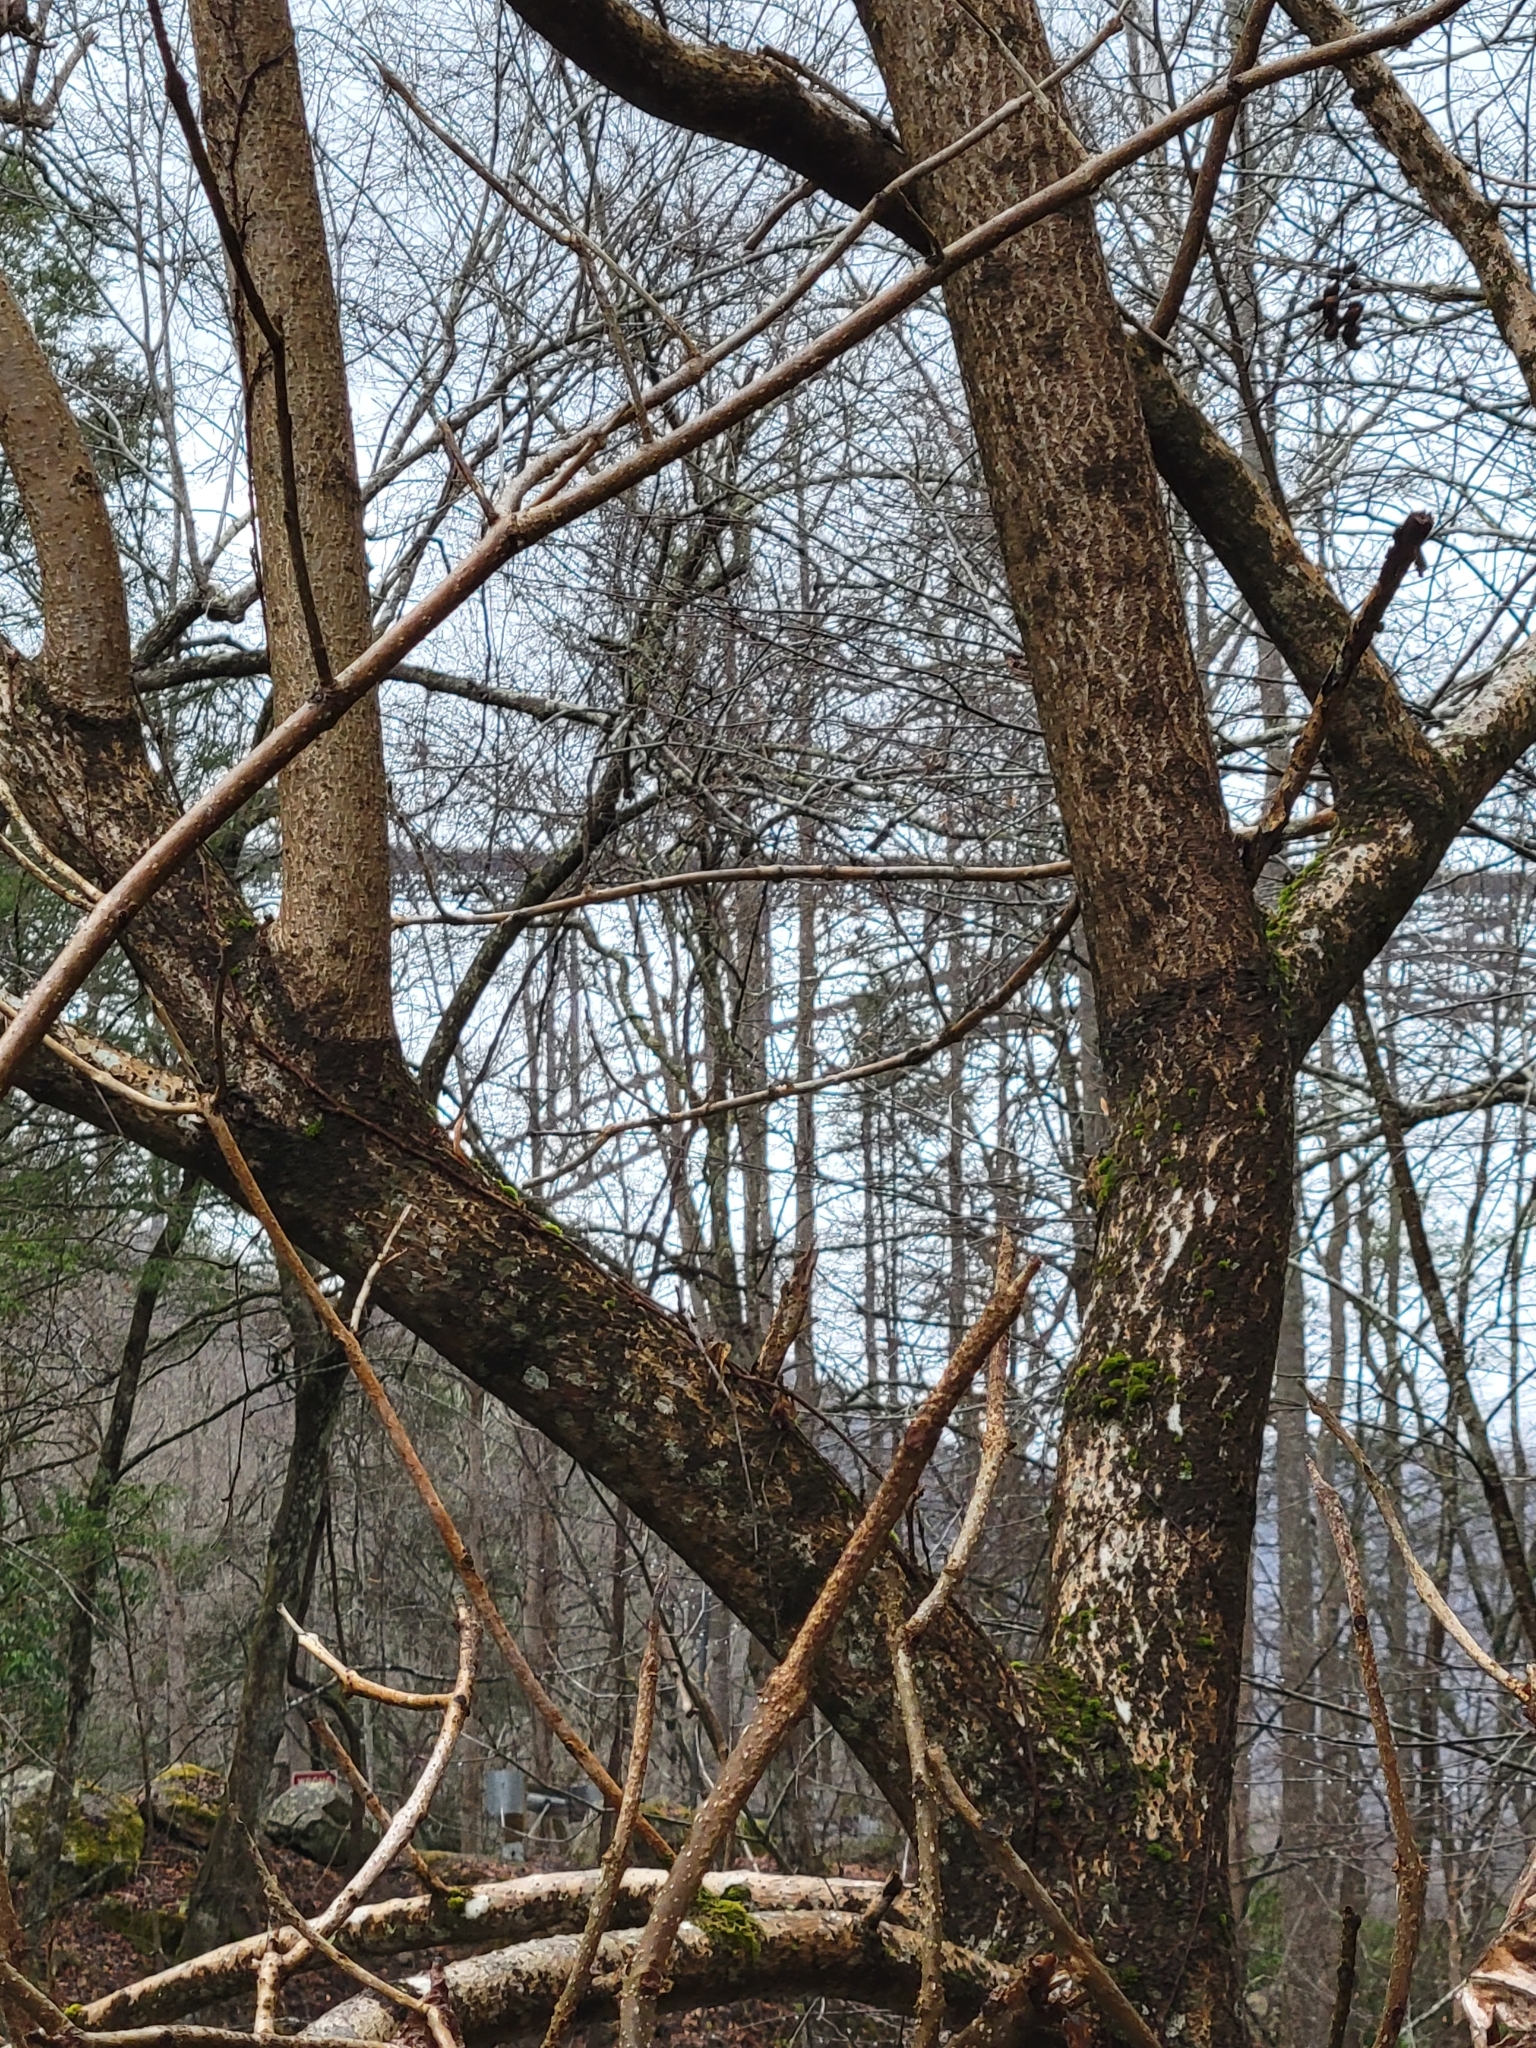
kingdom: Plantae
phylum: Tracheophyta
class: Magnoliopsida
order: Lamiales
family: Paulowniaceae
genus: Paulownia
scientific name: Paulownia tomentosa
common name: Foxglove-tree
